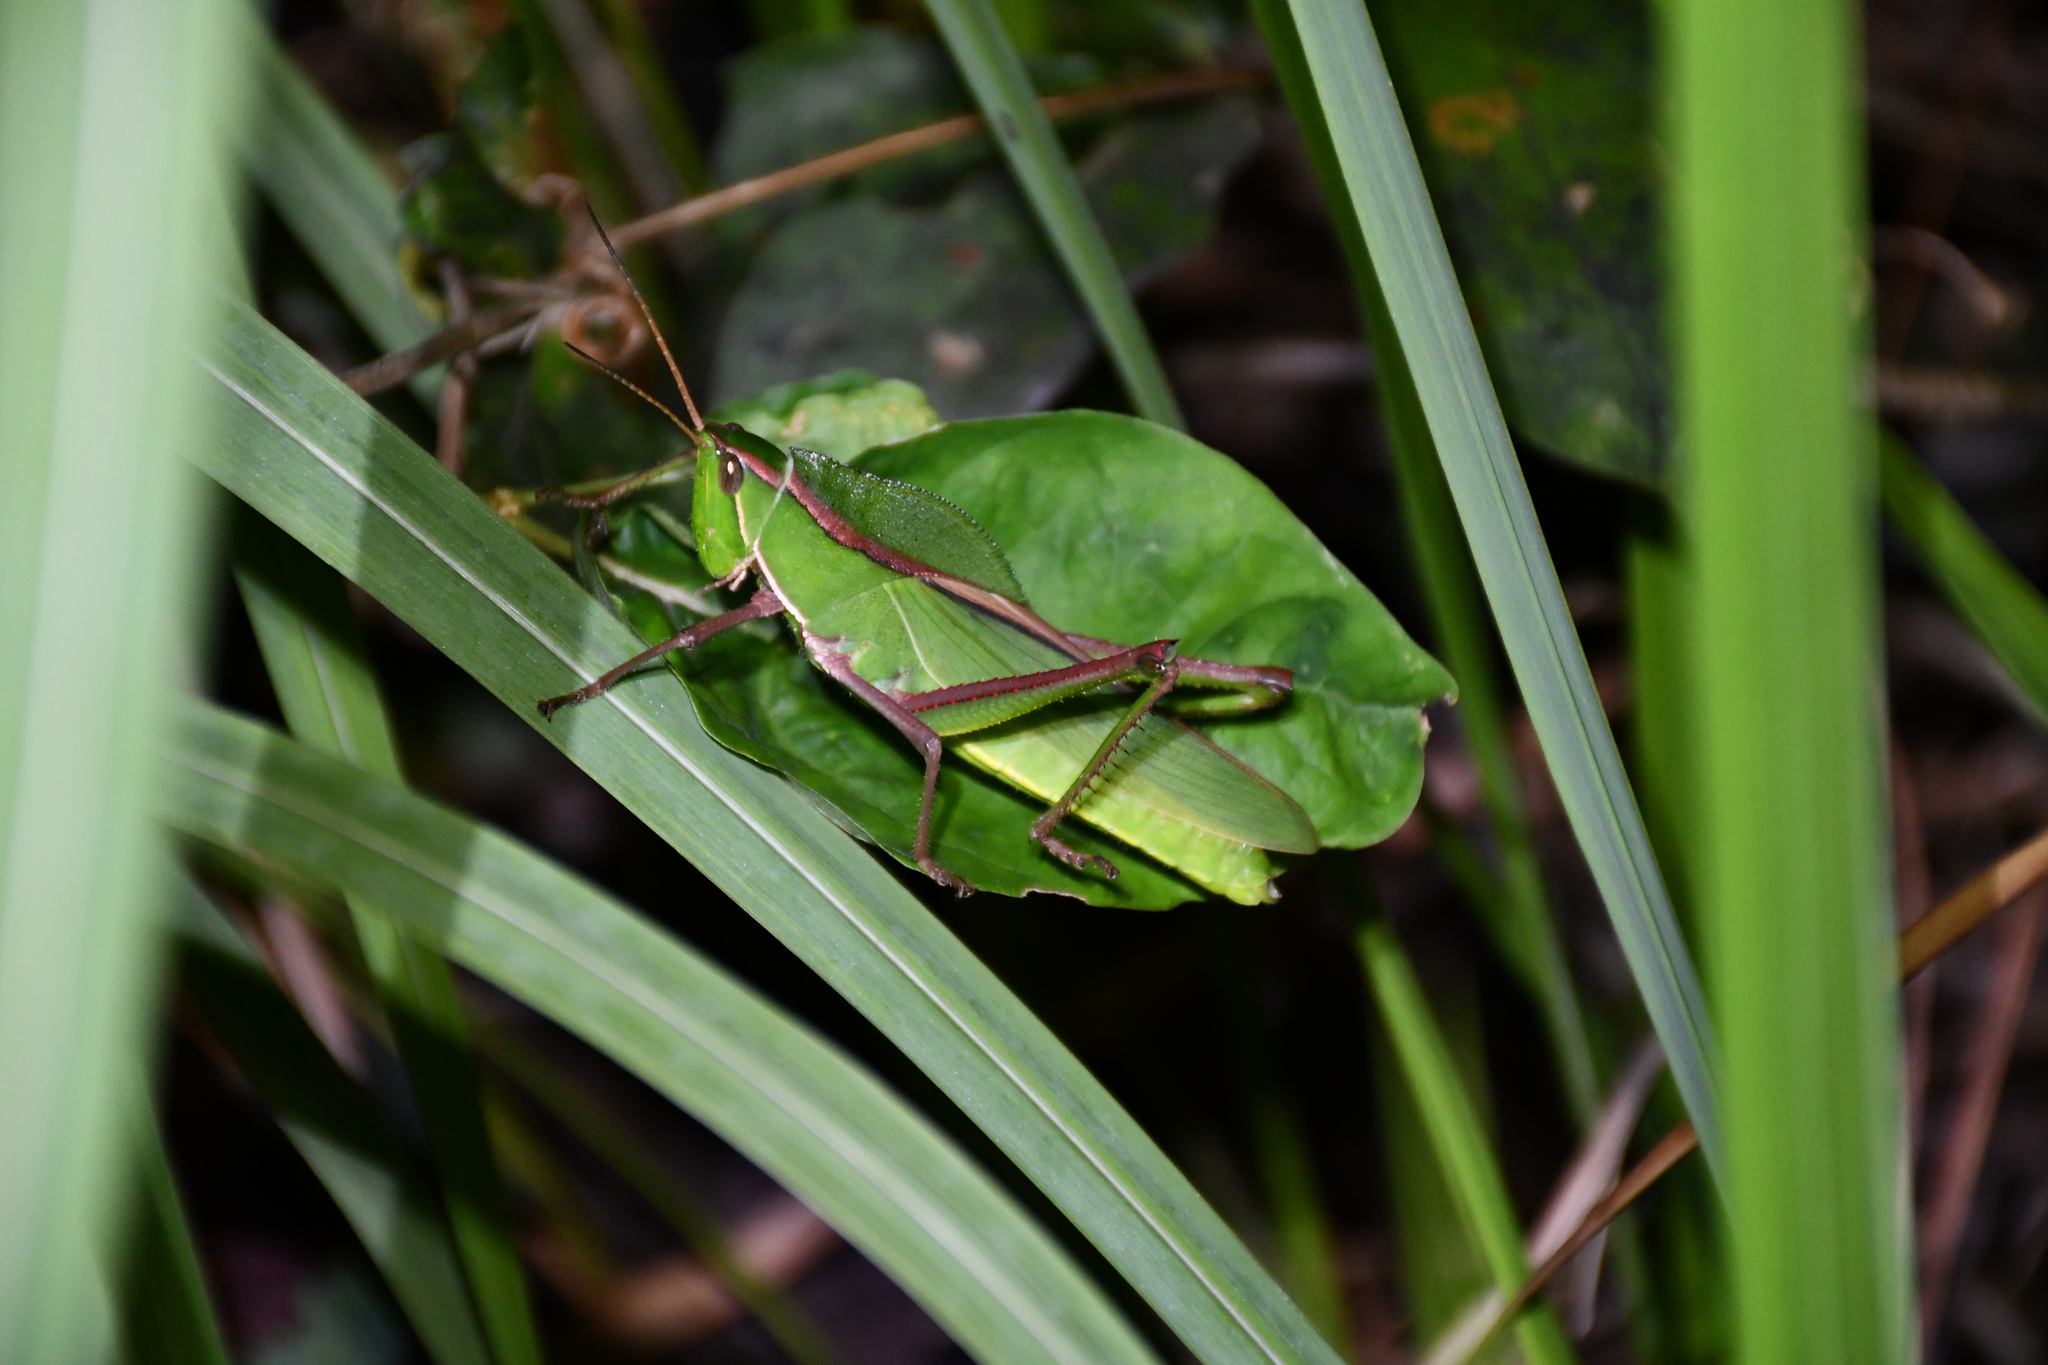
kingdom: Animalia
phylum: Arthropoda
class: Insecta
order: Orthoptera
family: Romaleidae
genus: Prionolopha
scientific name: Prionolopha serrata
